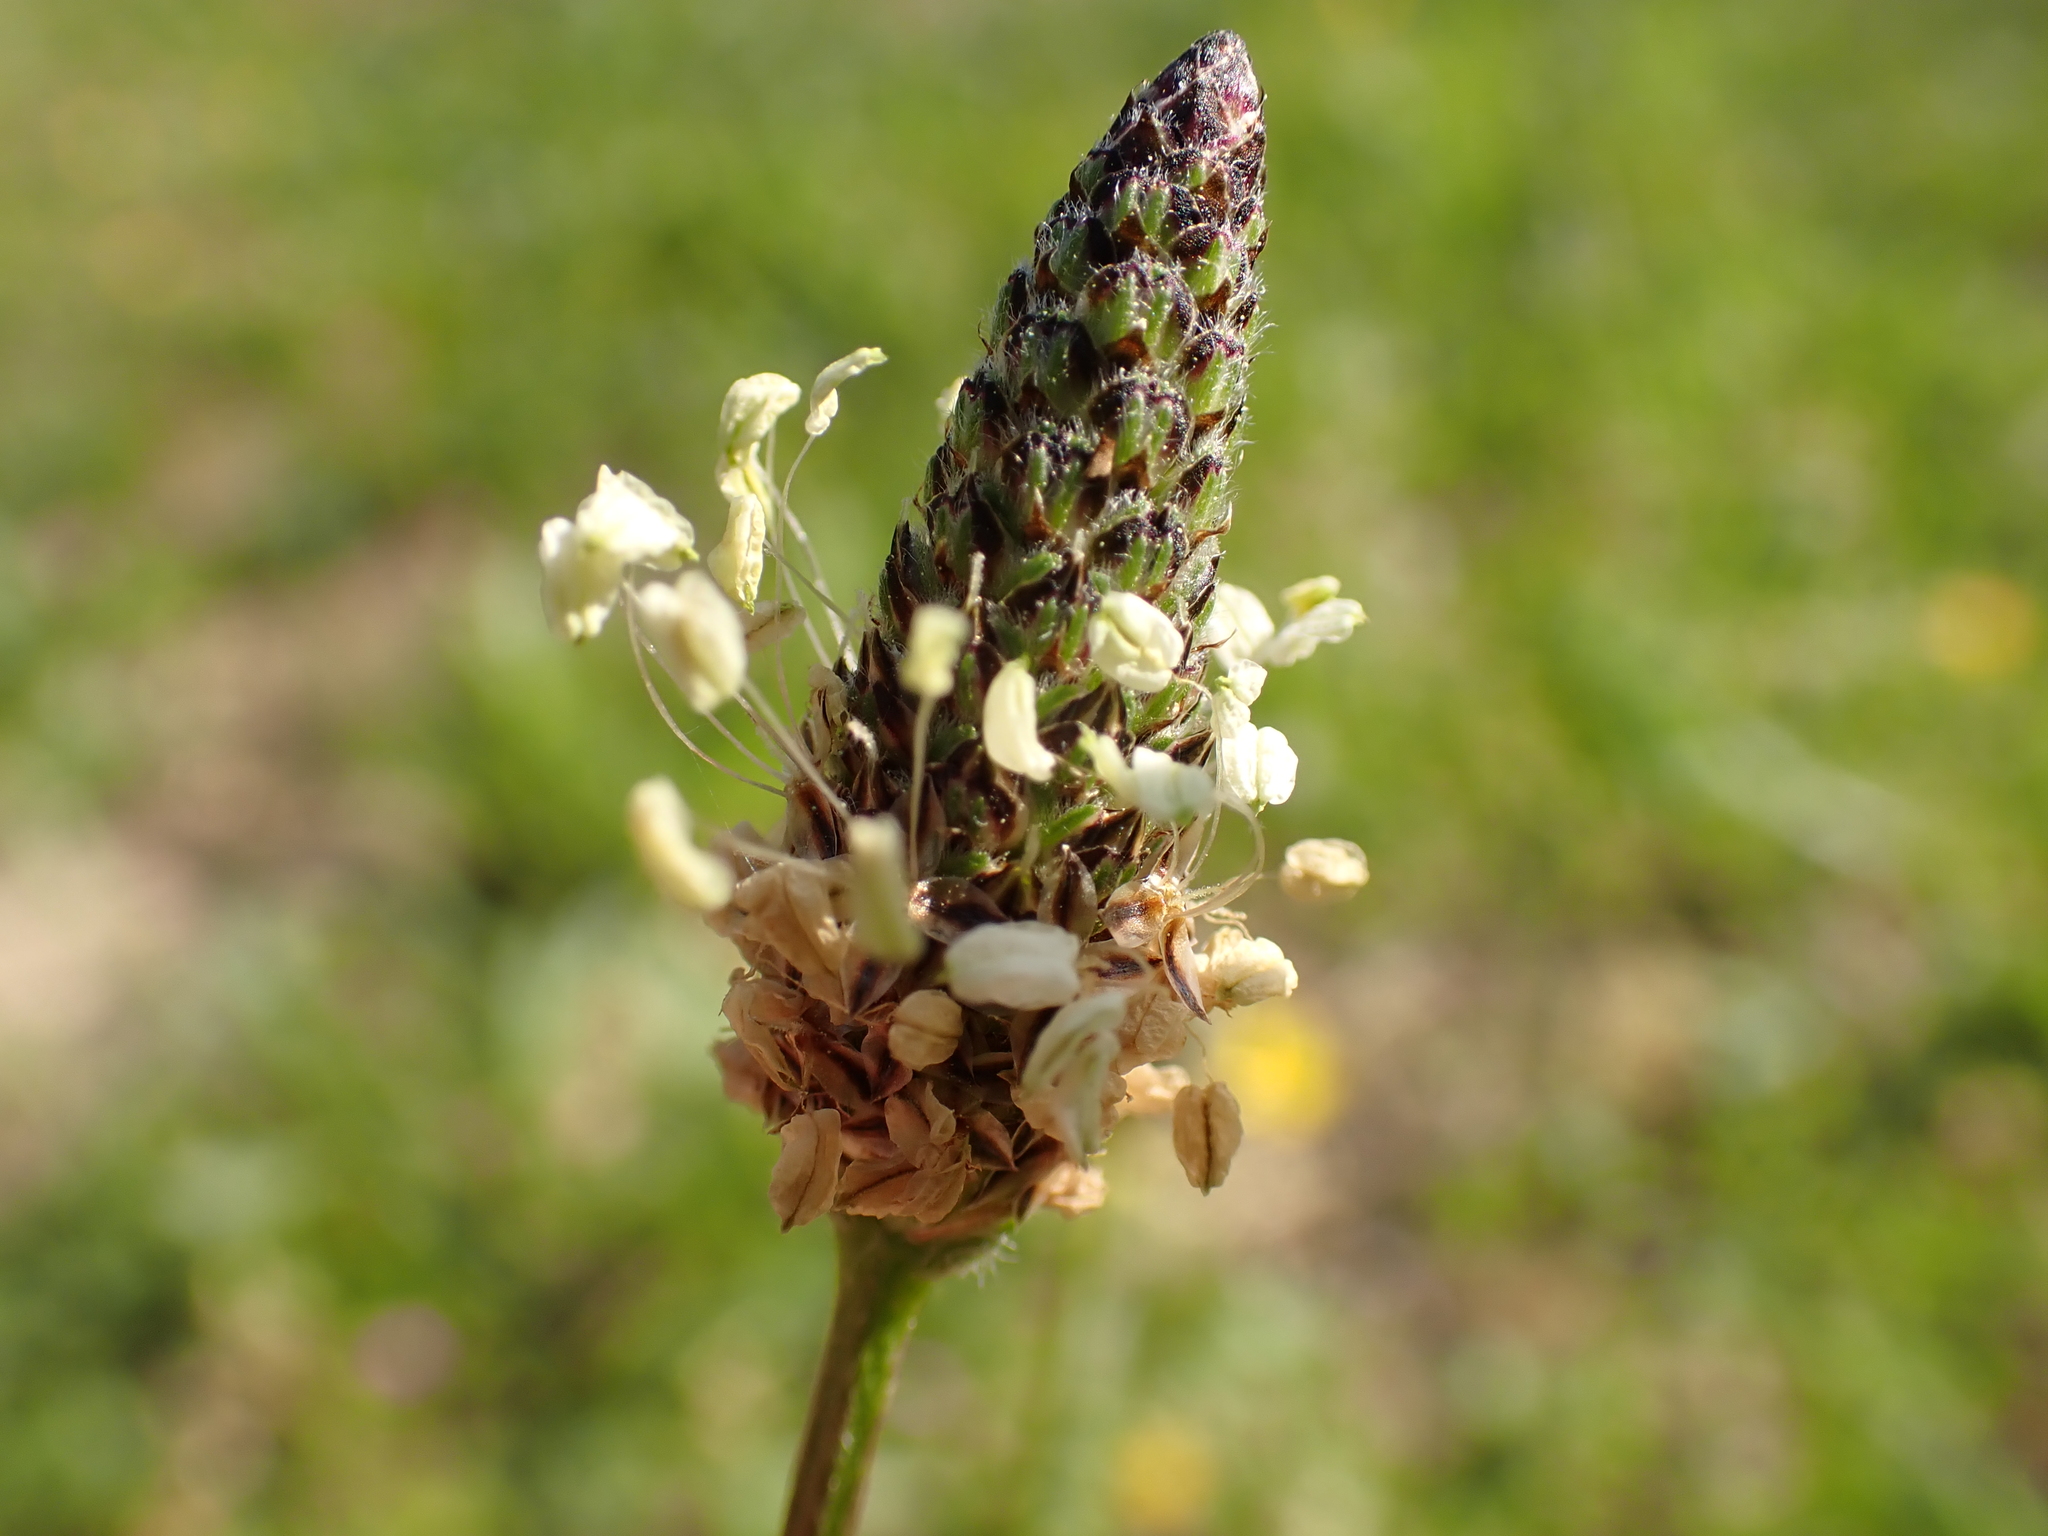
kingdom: Plantae
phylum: Tracheophyta
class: Magnoliopsida
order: Lamiales
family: Plantaginaceae
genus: Plantago
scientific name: Plantago lanceolata
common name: Ribwort plantain
